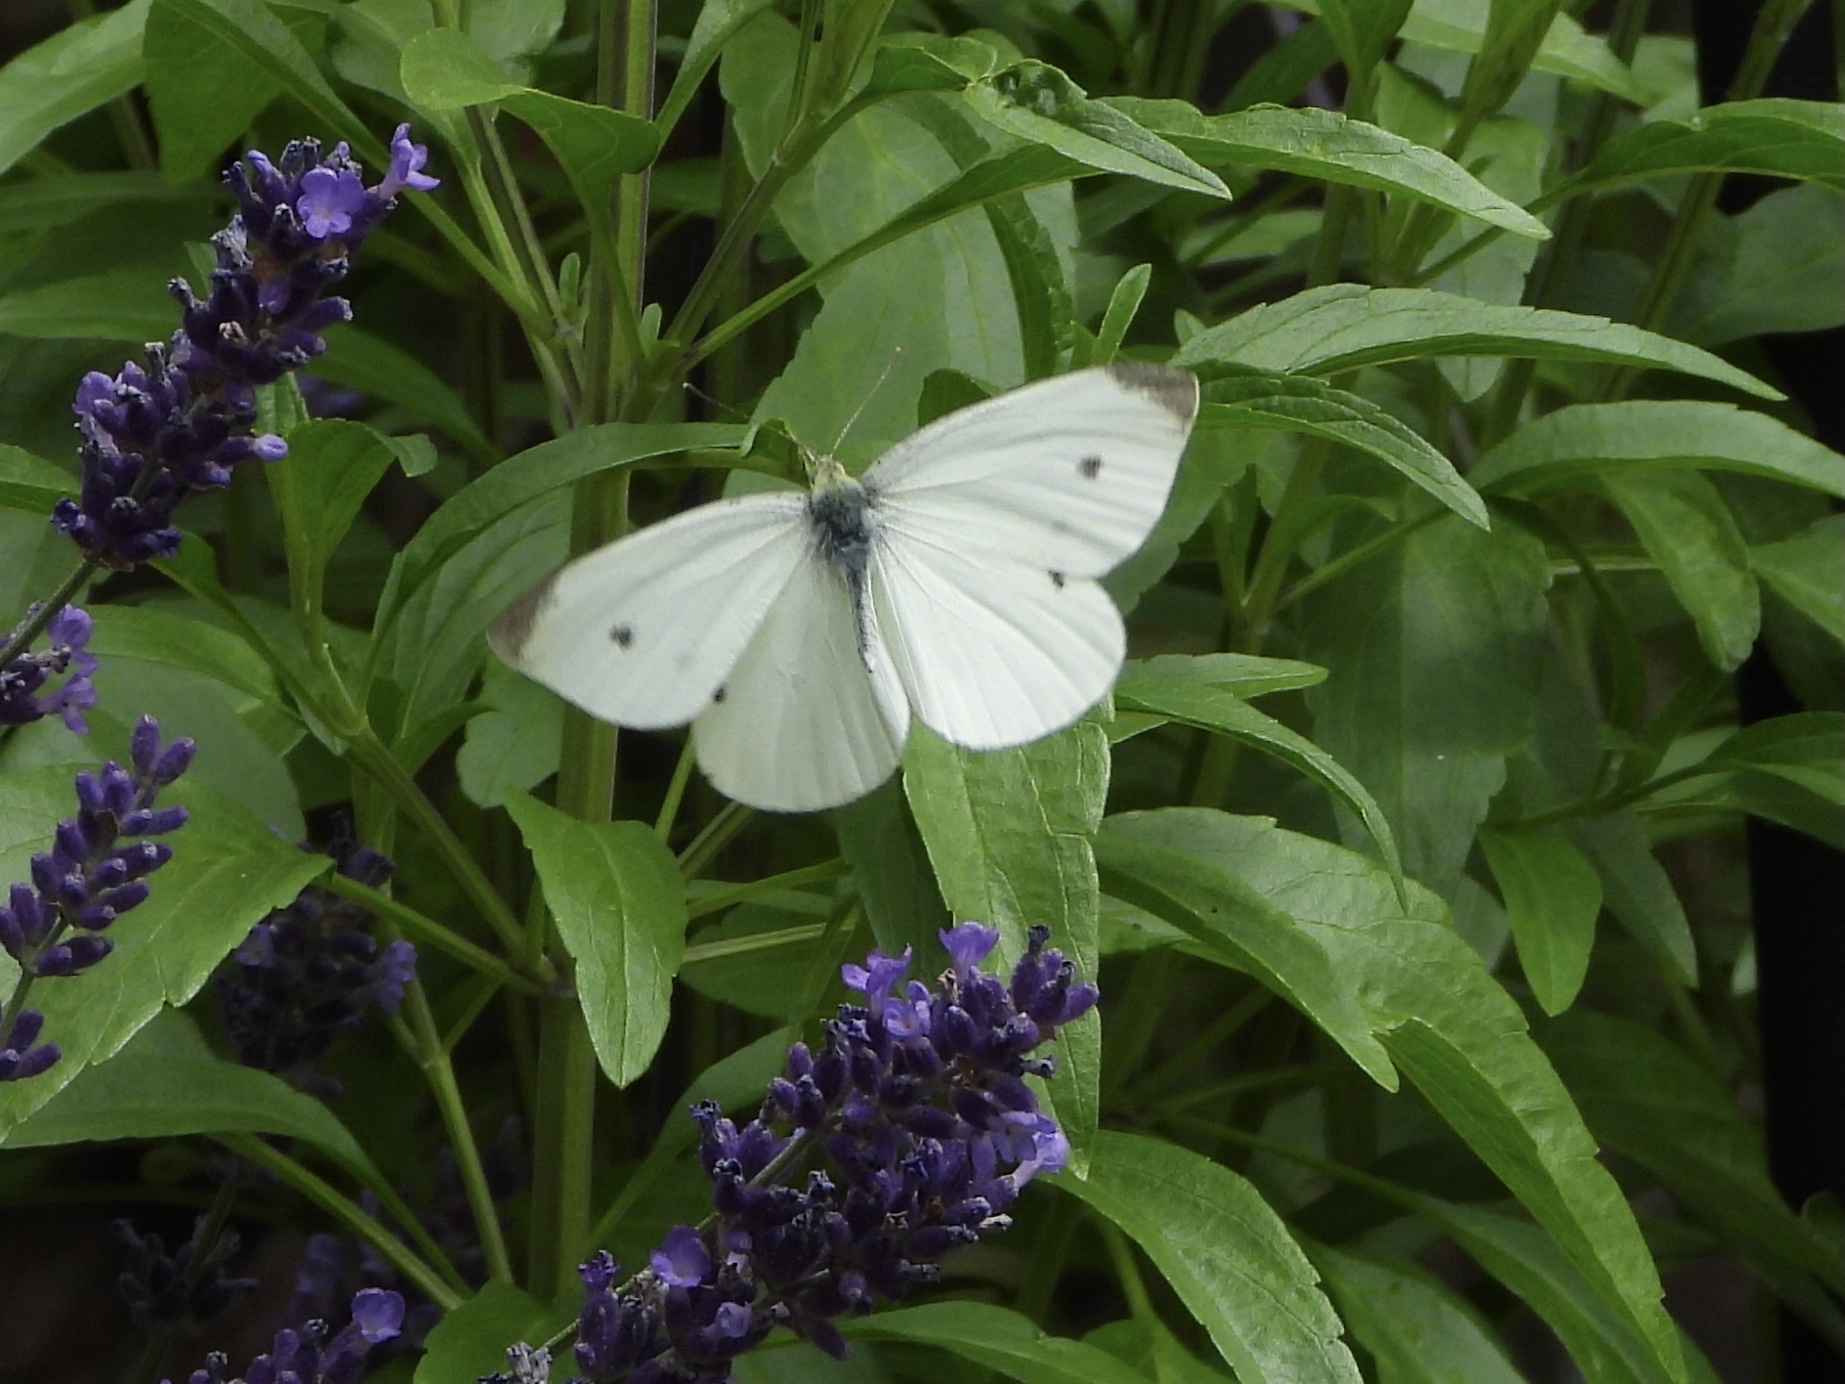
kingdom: Animalia
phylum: Arthropoda
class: Insecta
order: Lepidoptera
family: Pieridae
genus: Pieris
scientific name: Pieris rapae
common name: Small white
